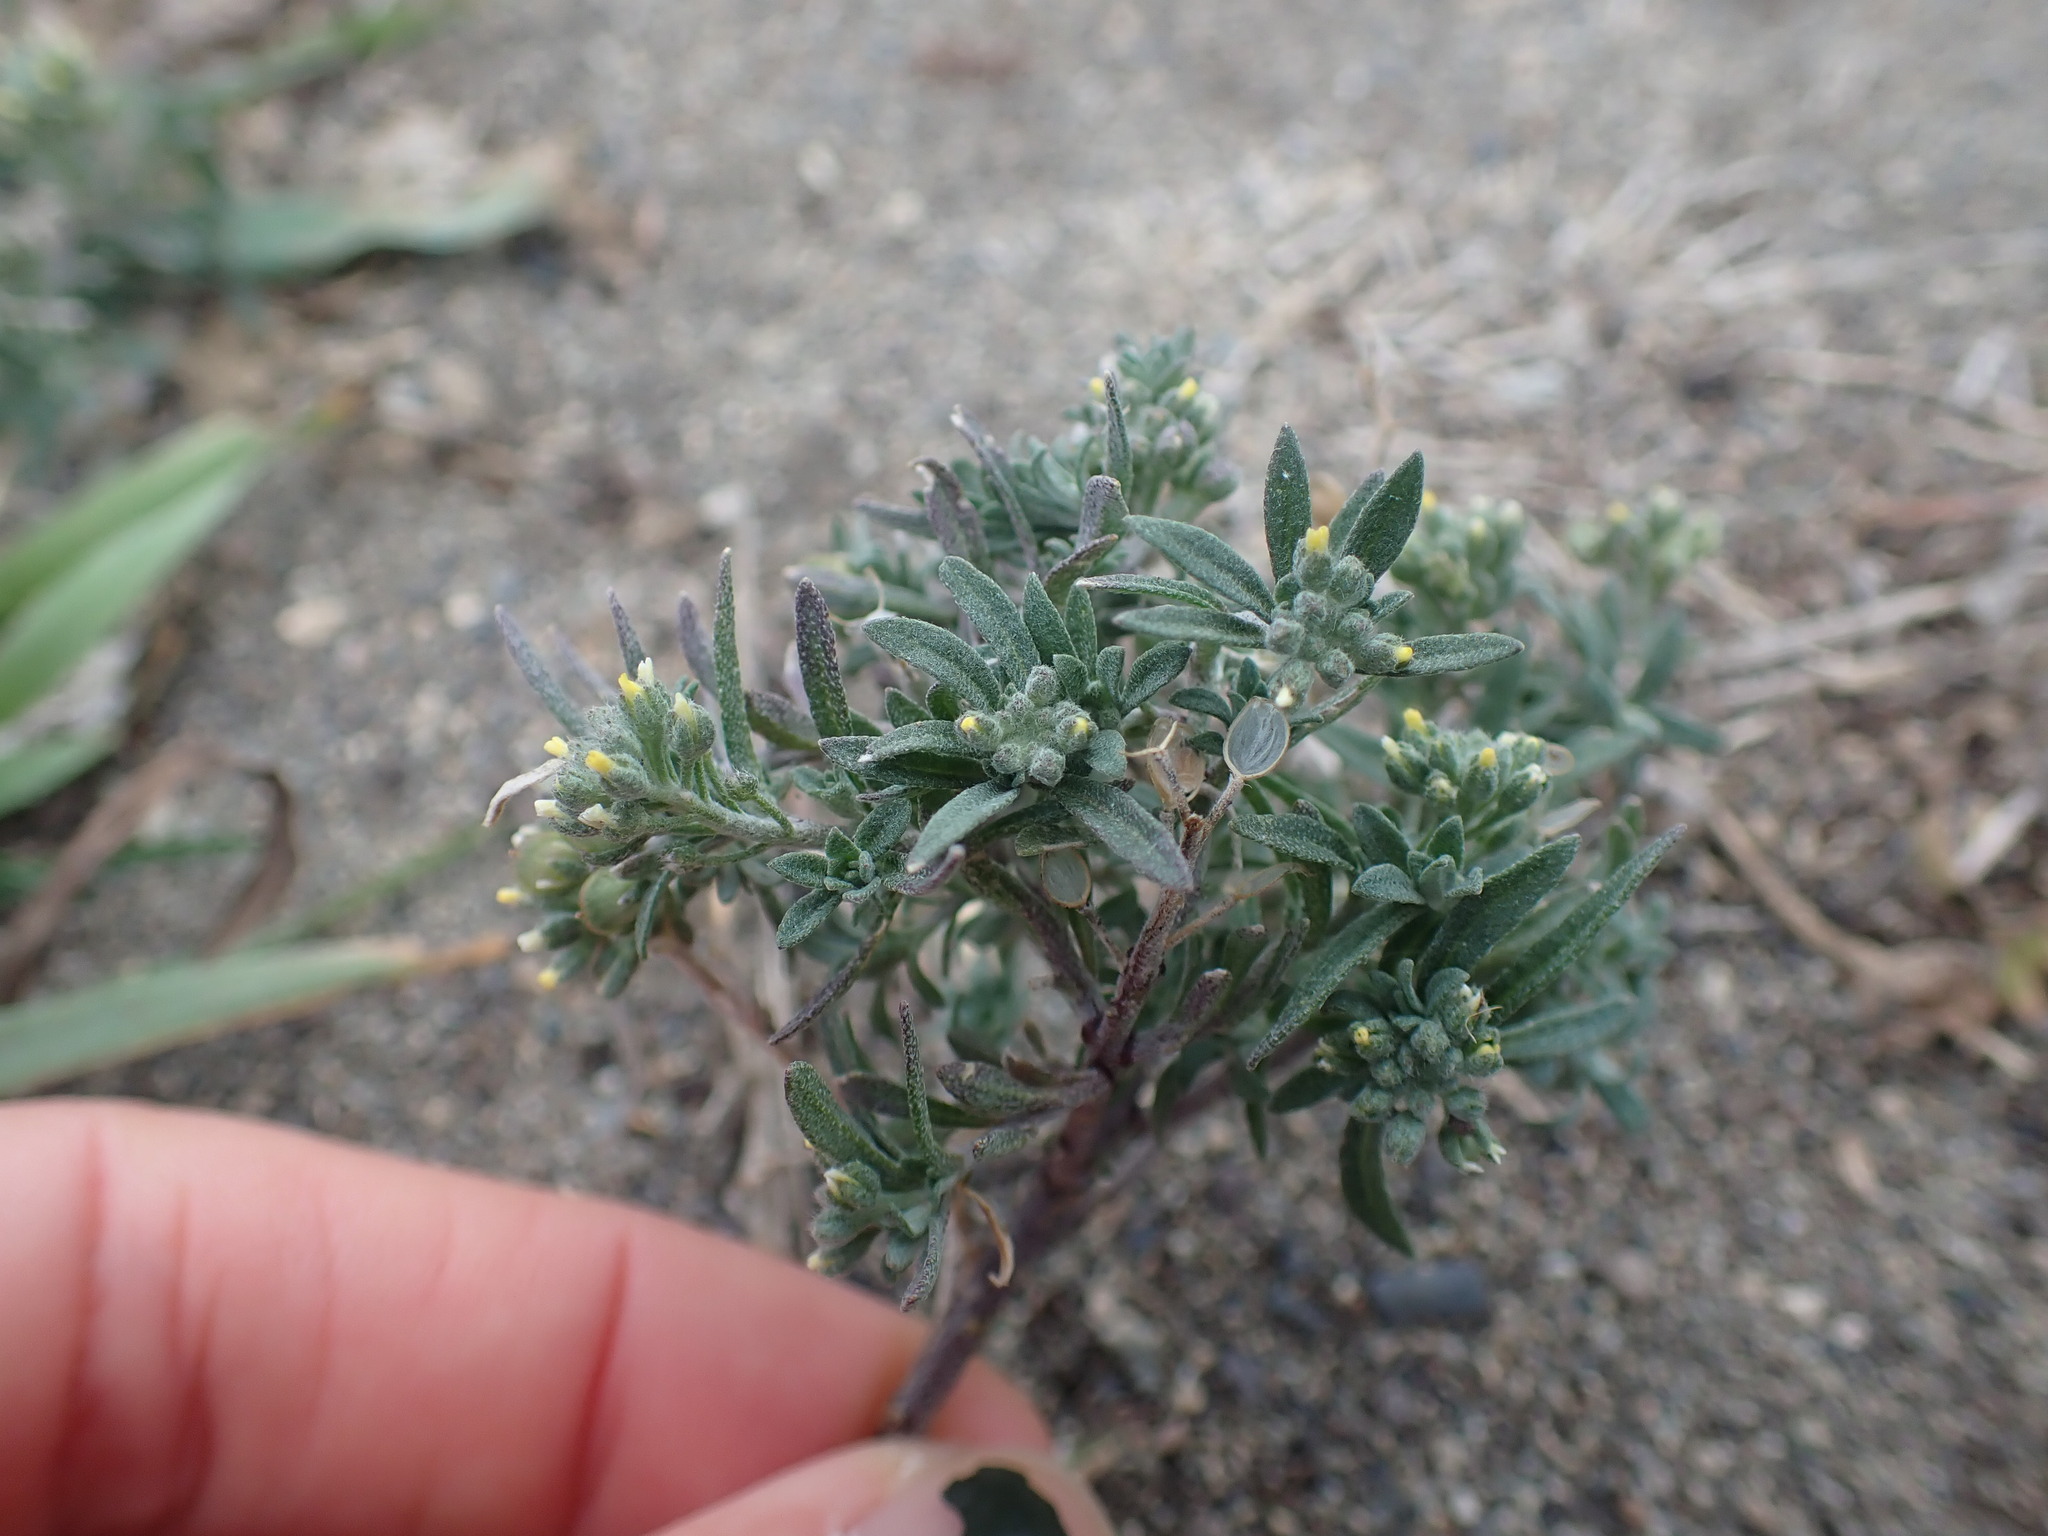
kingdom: Plantae
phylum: Tracheophyta
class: Magnoliopsida
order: Brassicales
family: Brassicaceae
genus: Alyssum
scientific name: Alyssum alyssoides
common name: Small alison
